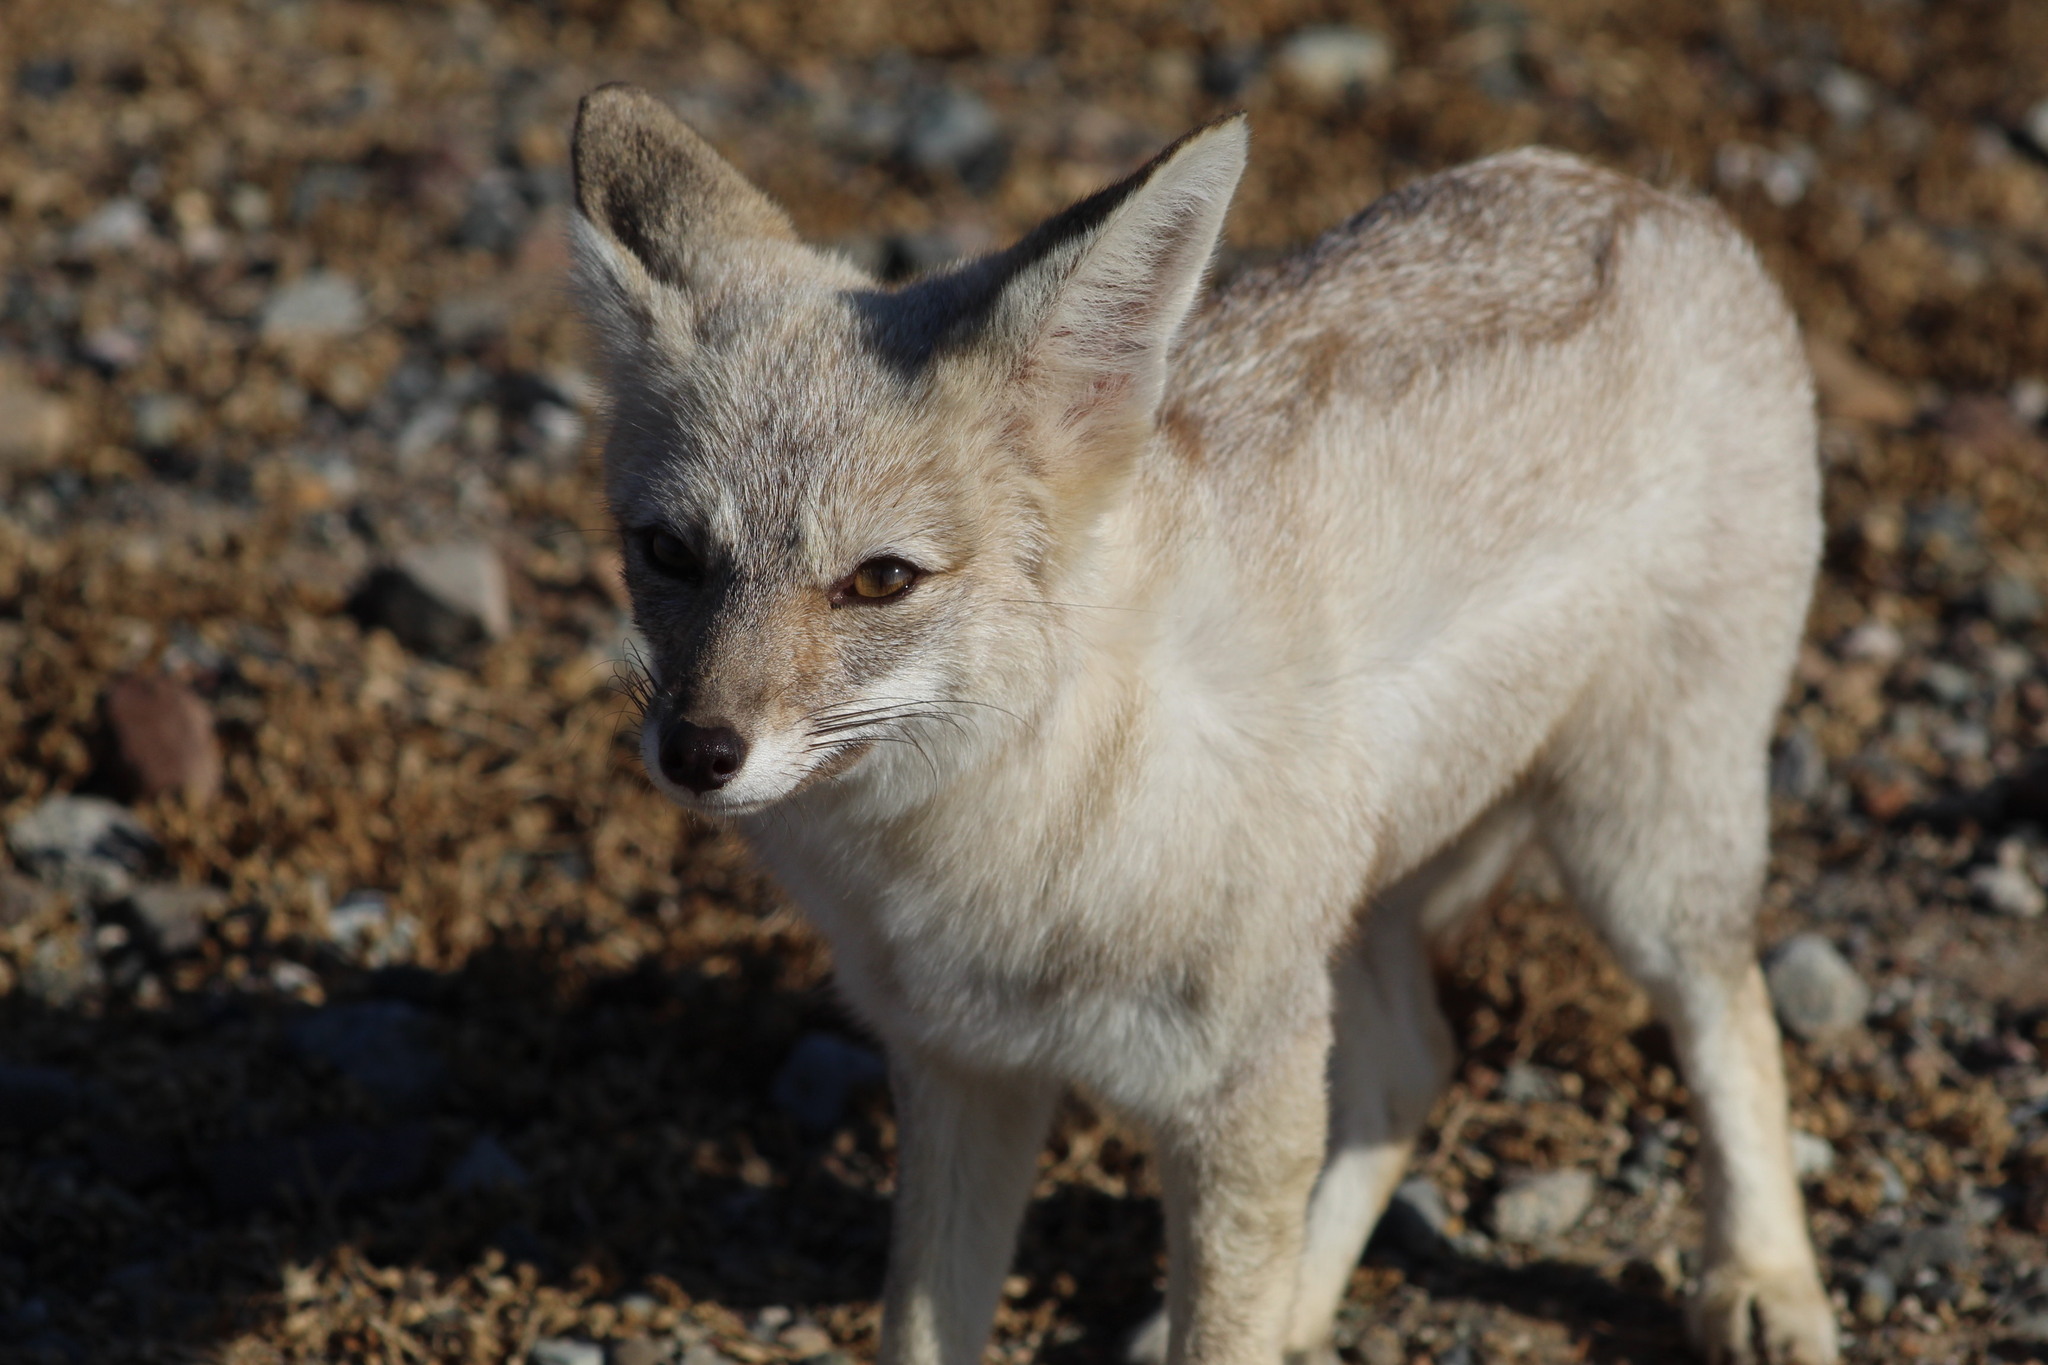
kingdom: Animalia
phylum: Chordata
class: Mammalia
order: Carnivora
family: Canidae
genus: Lycalopex
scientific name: Lycalopex gymnocercus
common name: Pampas fox
